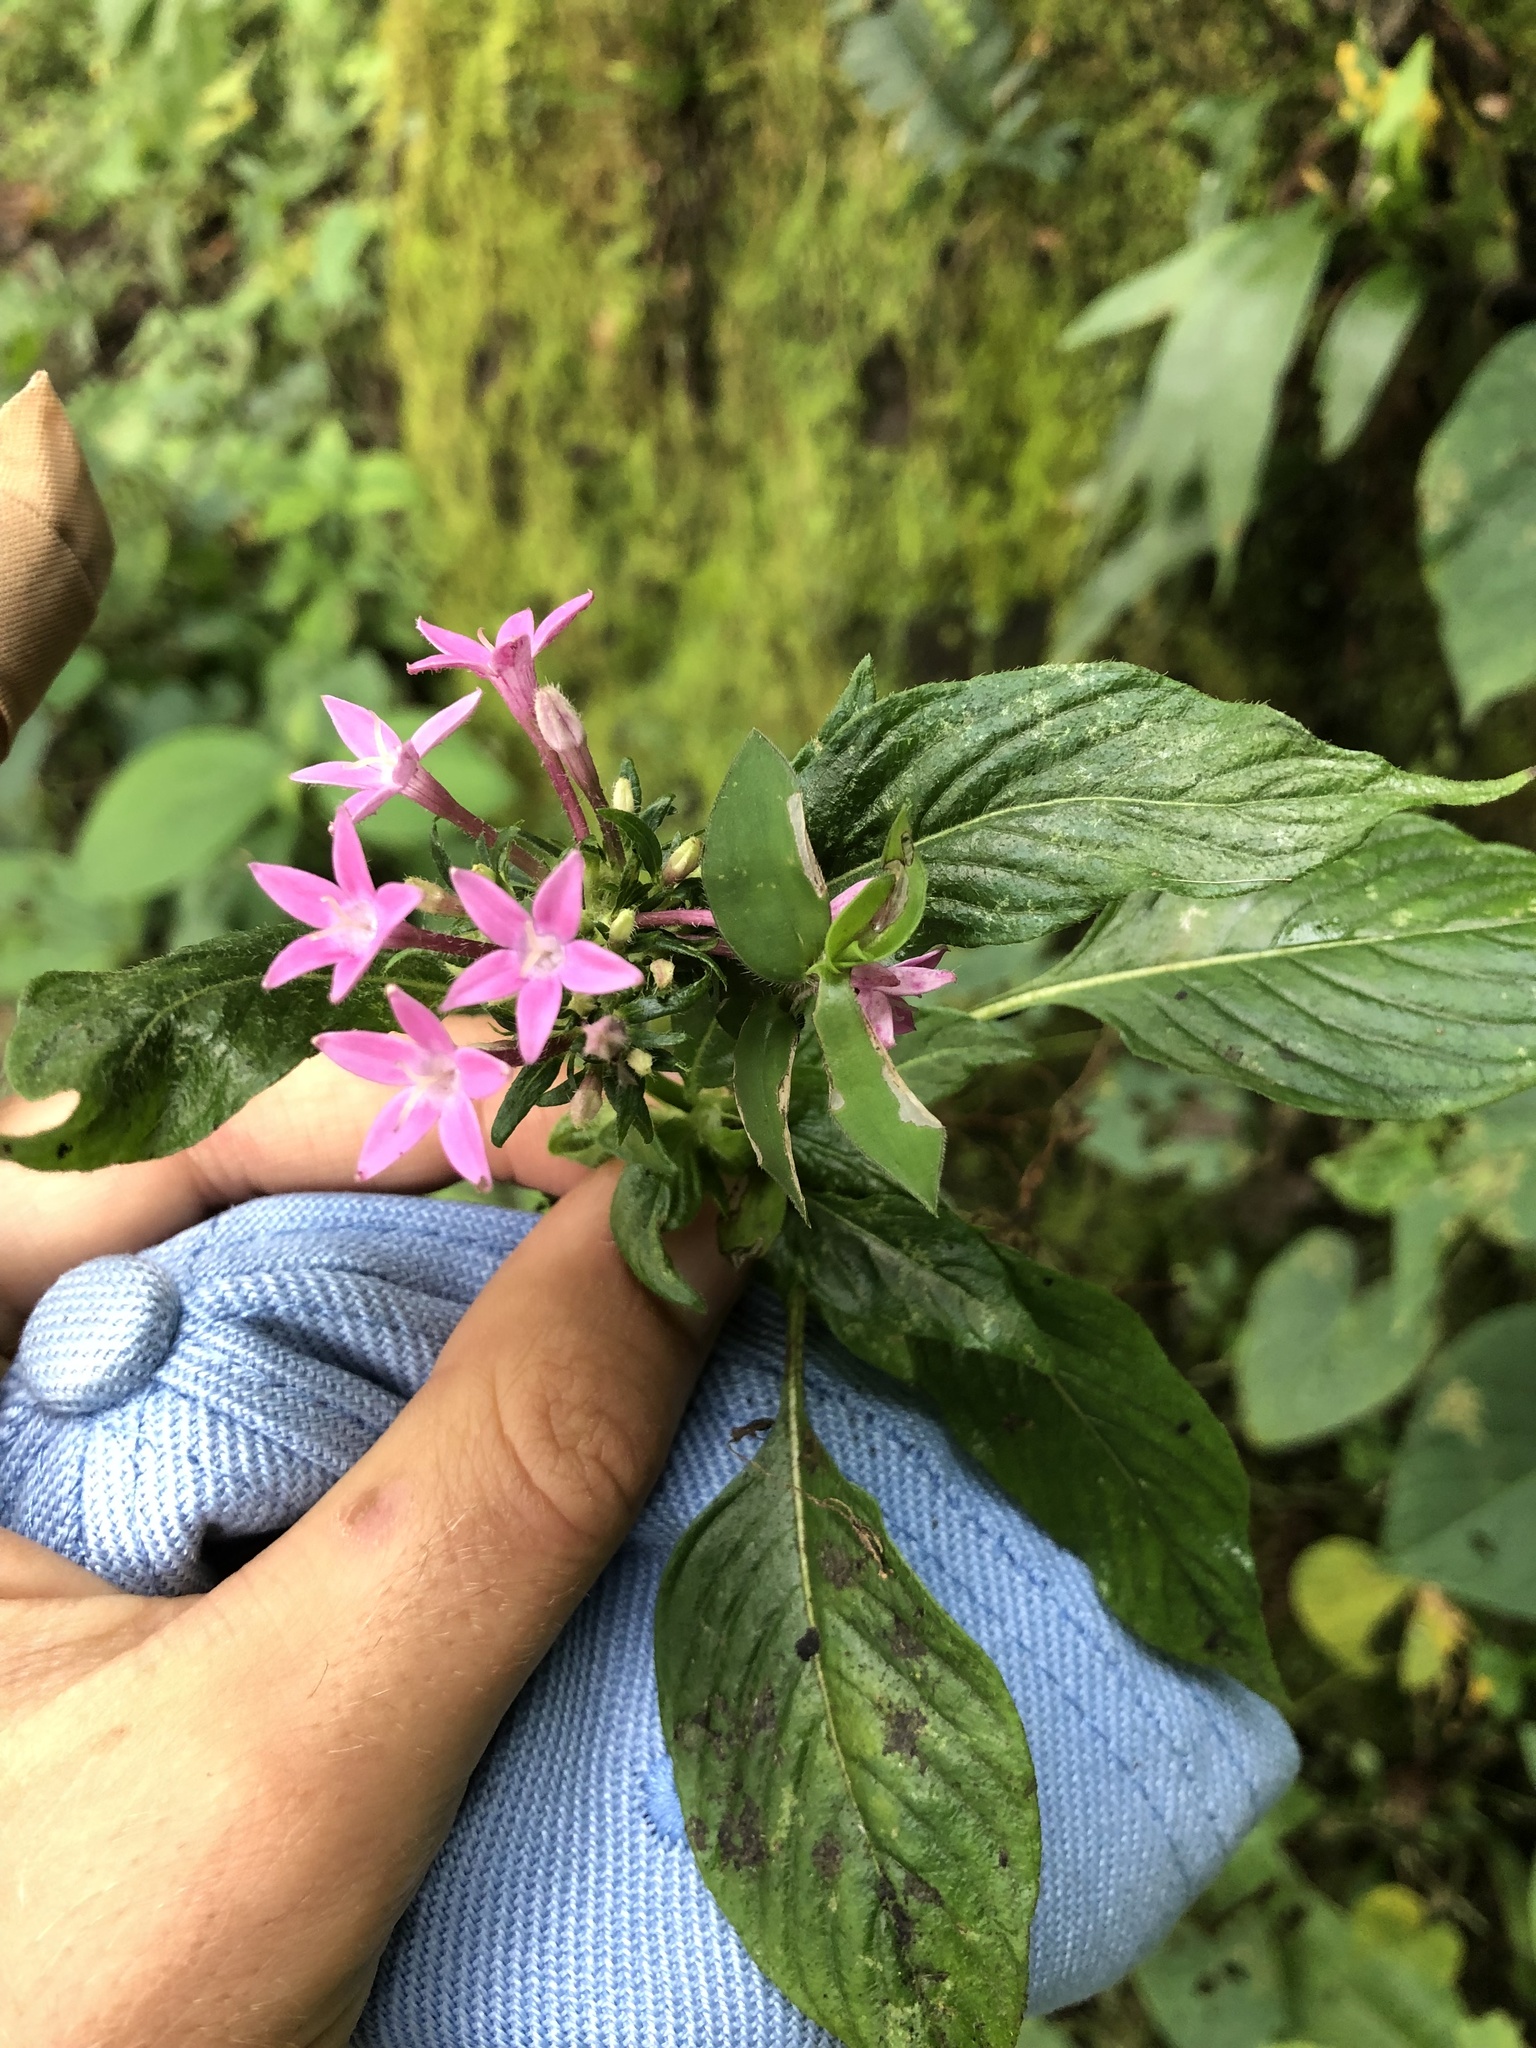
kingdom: Plantae
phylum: Tracheophyta
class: Magnoliopsida
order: Gentianales
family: Rubiaceae
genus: Pentas
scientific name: Pentas lanceolata
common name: Egyptian starcluster
